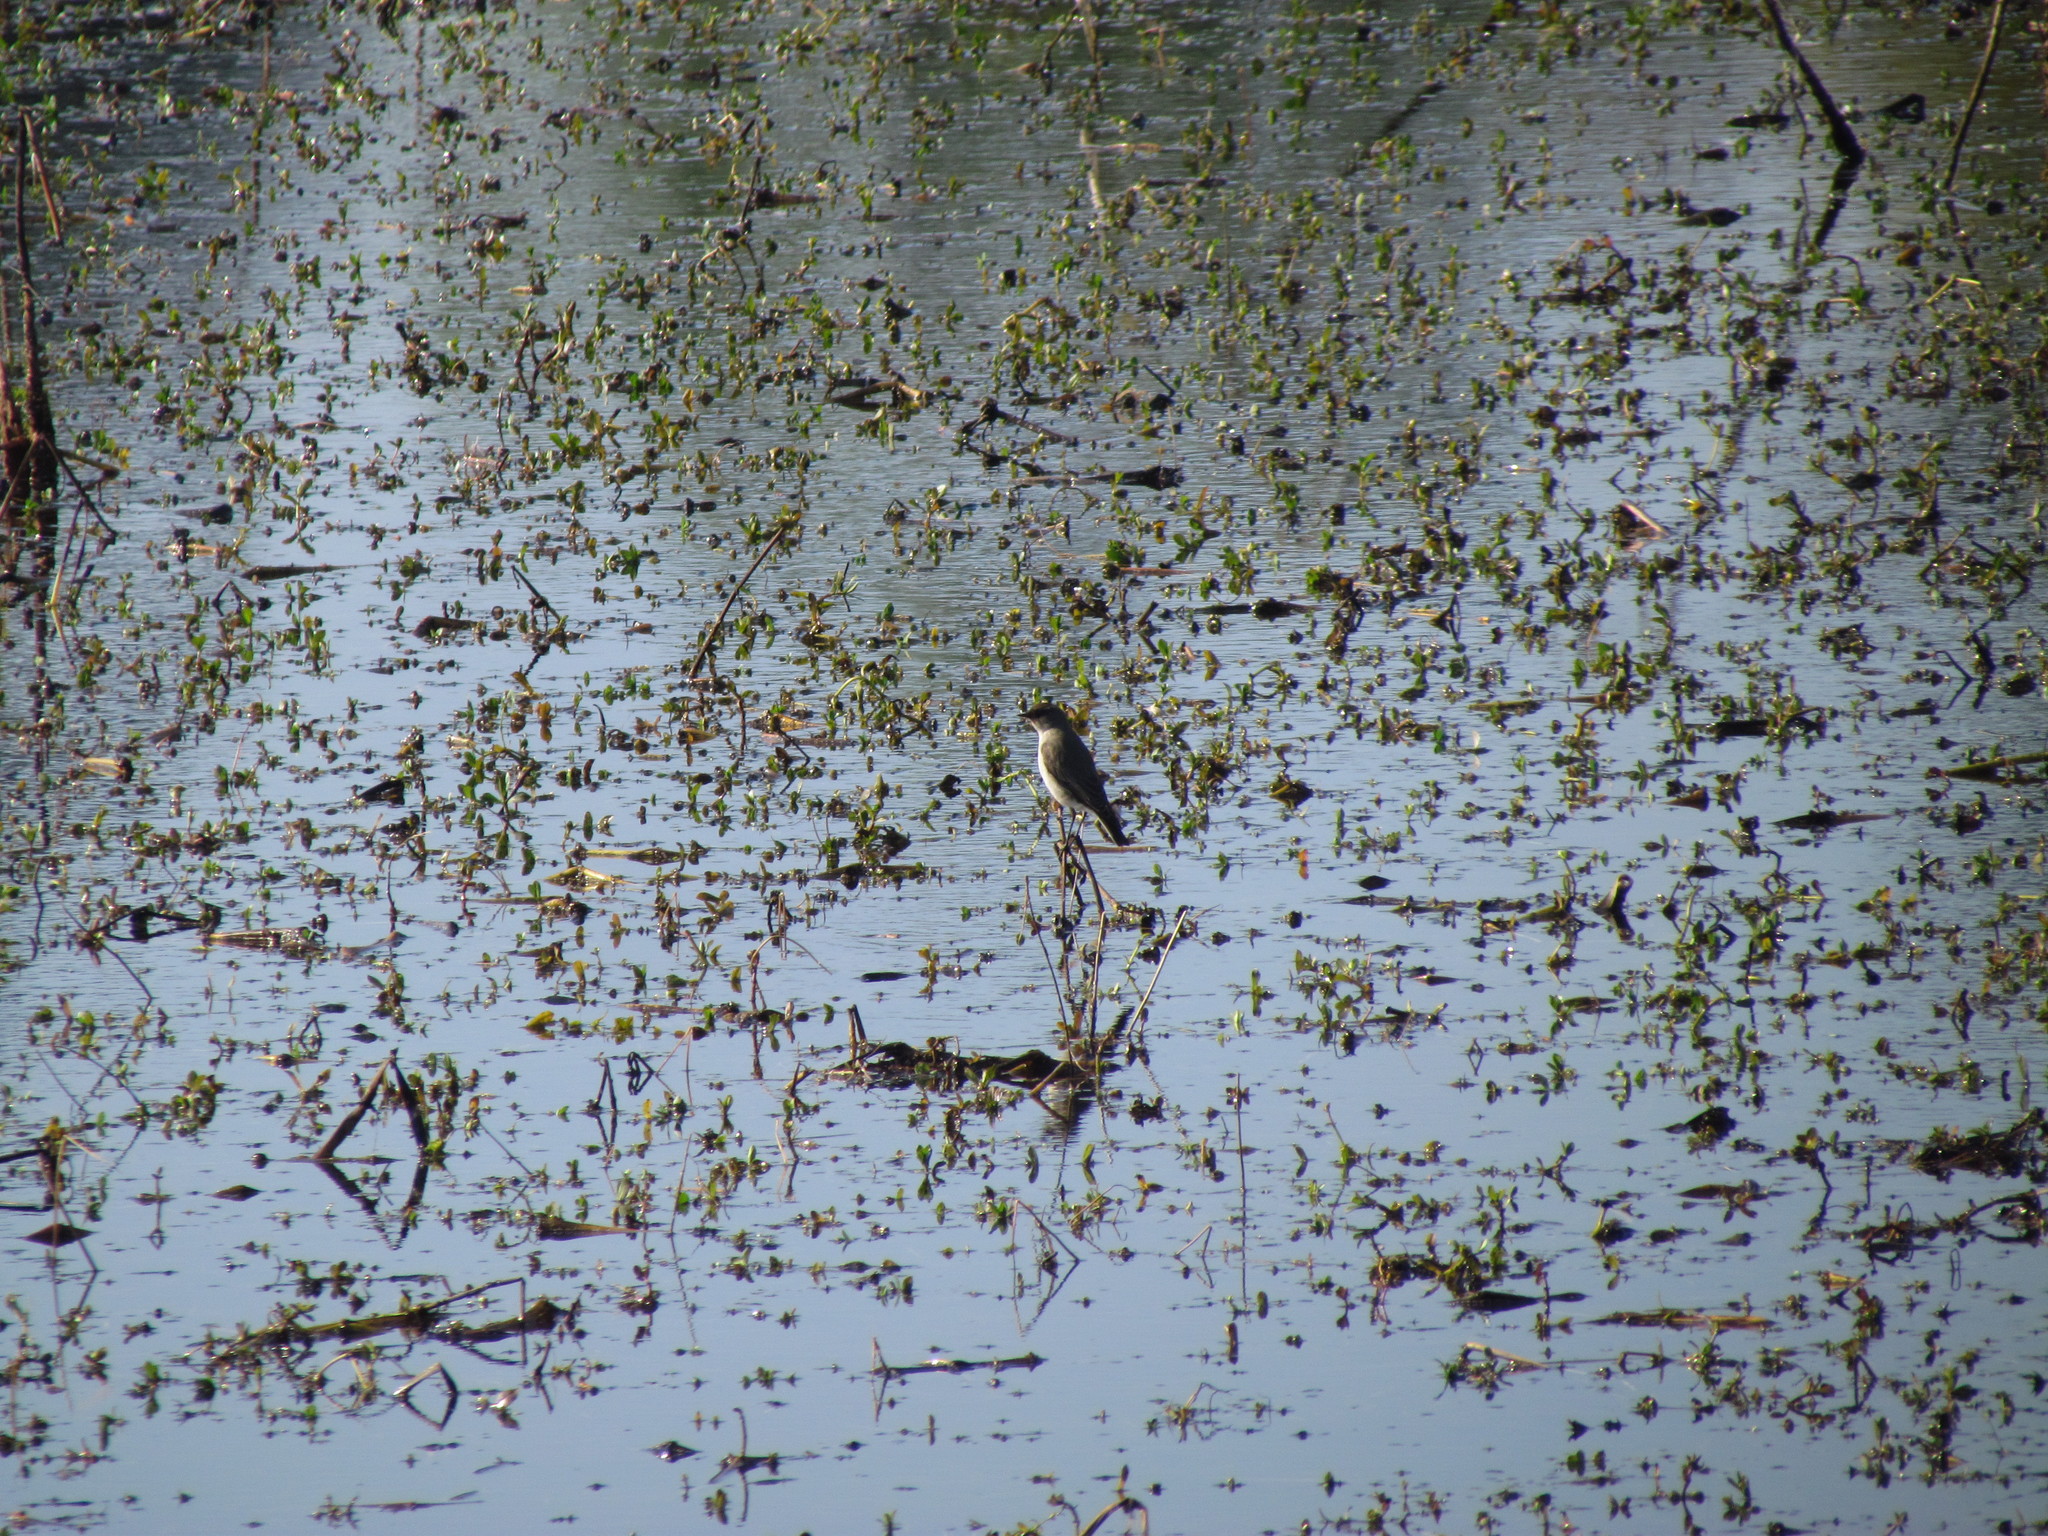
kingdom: Animalia
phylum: Chordata
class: Aves
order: Passeriformes
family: Tyrannidae
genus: Muscisaxicola
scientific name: Muscisaxicola maclovianus
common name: Dark-faced ground tyrant
